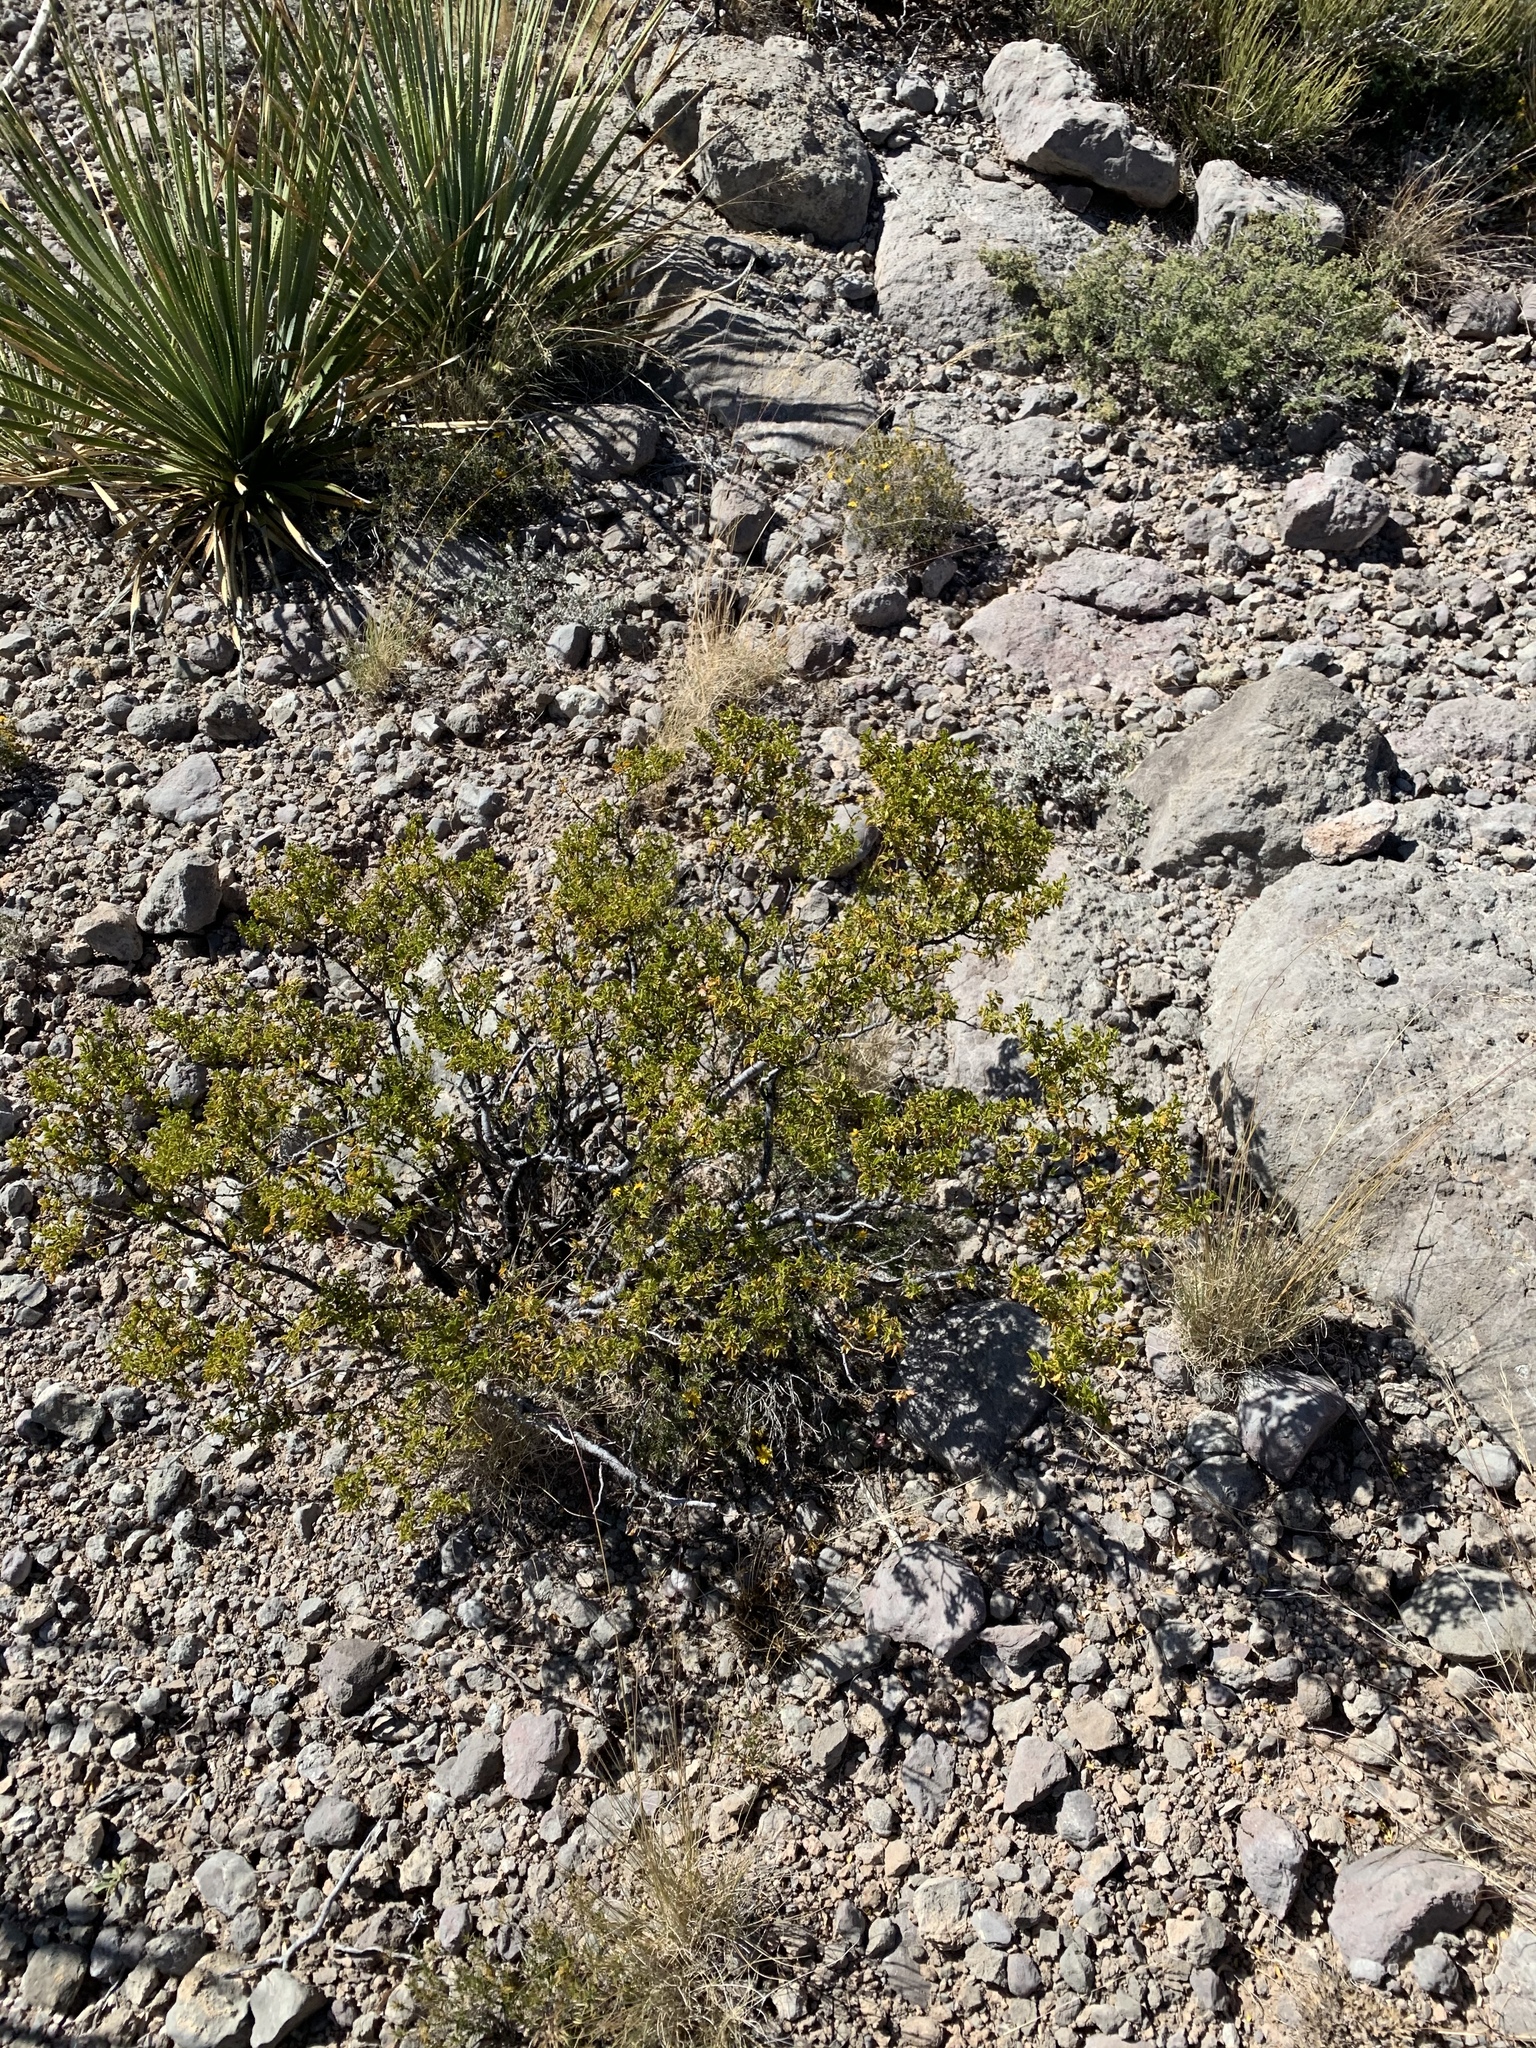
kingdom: Plantae
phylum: Tracheophyta
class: Magnoliopsida
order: Zygophyllales
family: Zygophyllaceae
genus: Larrea
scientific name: Larrea tridentata
